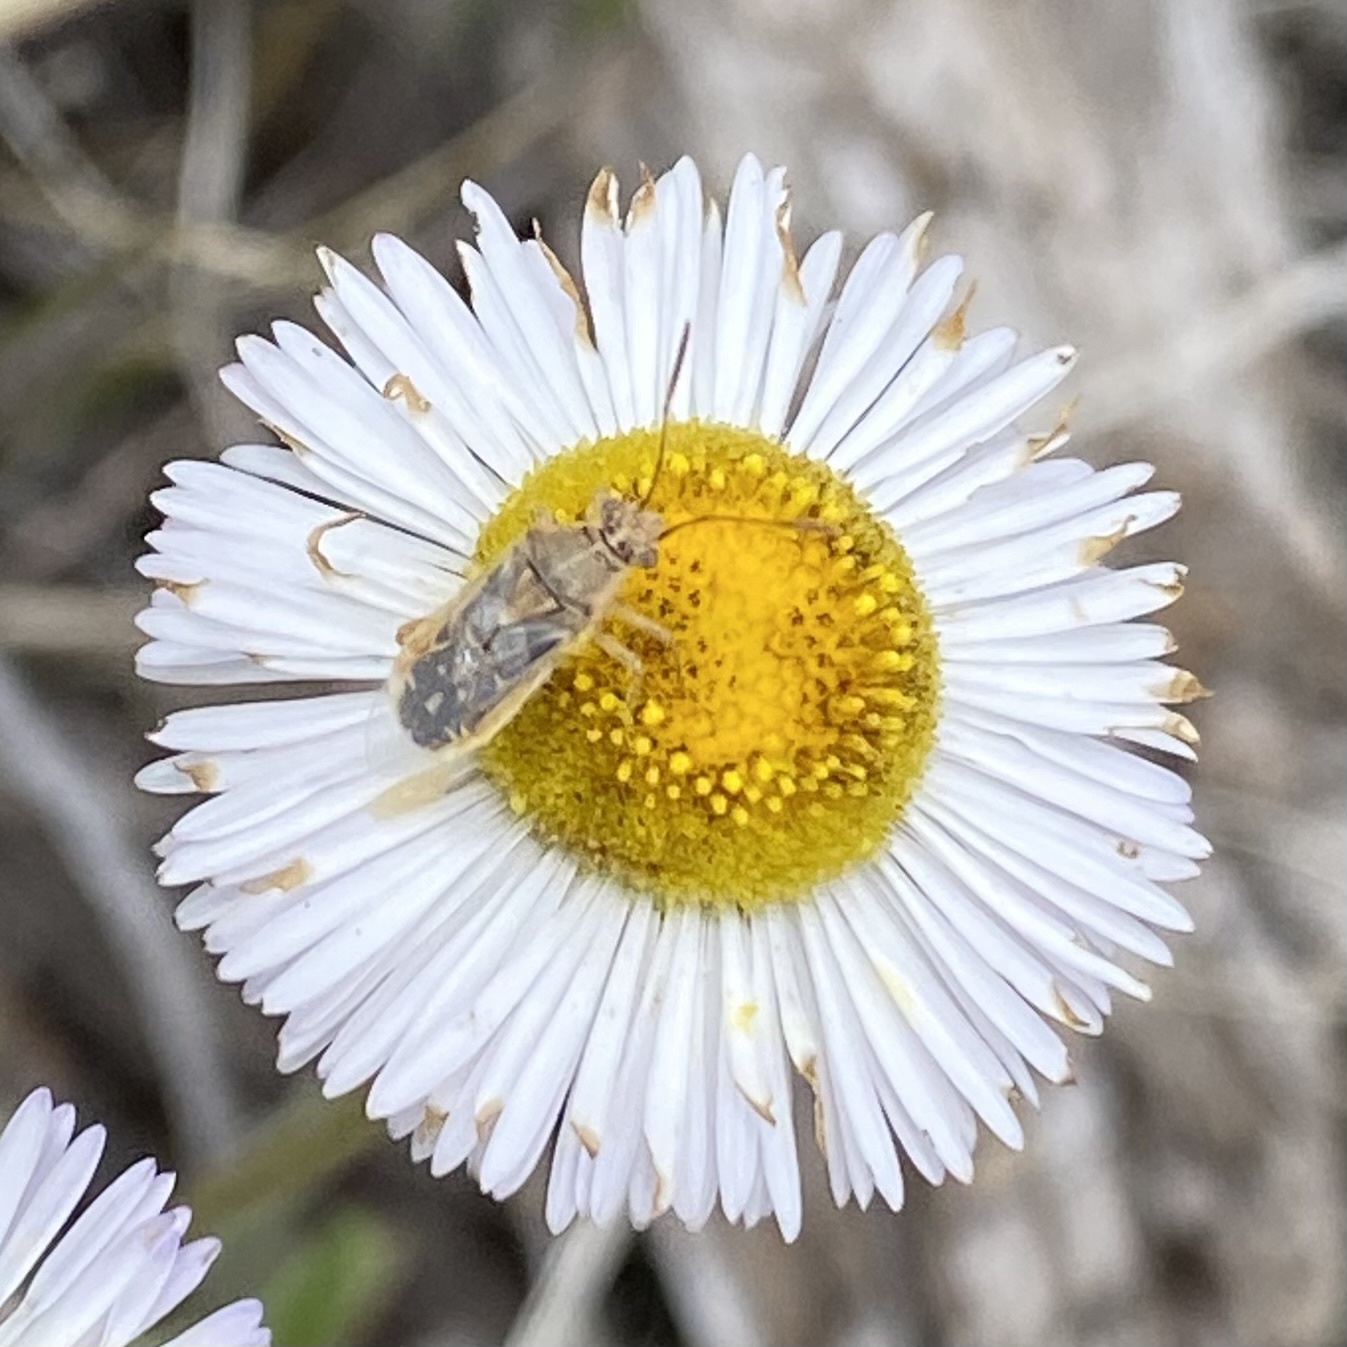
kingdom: Animalia
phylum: Arthropoda
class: Insecta
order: Hemiptera
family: Rhopalidae
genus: Liorhyssus
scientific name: Liorhyssus hyalinus
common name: Scentless plant bug
